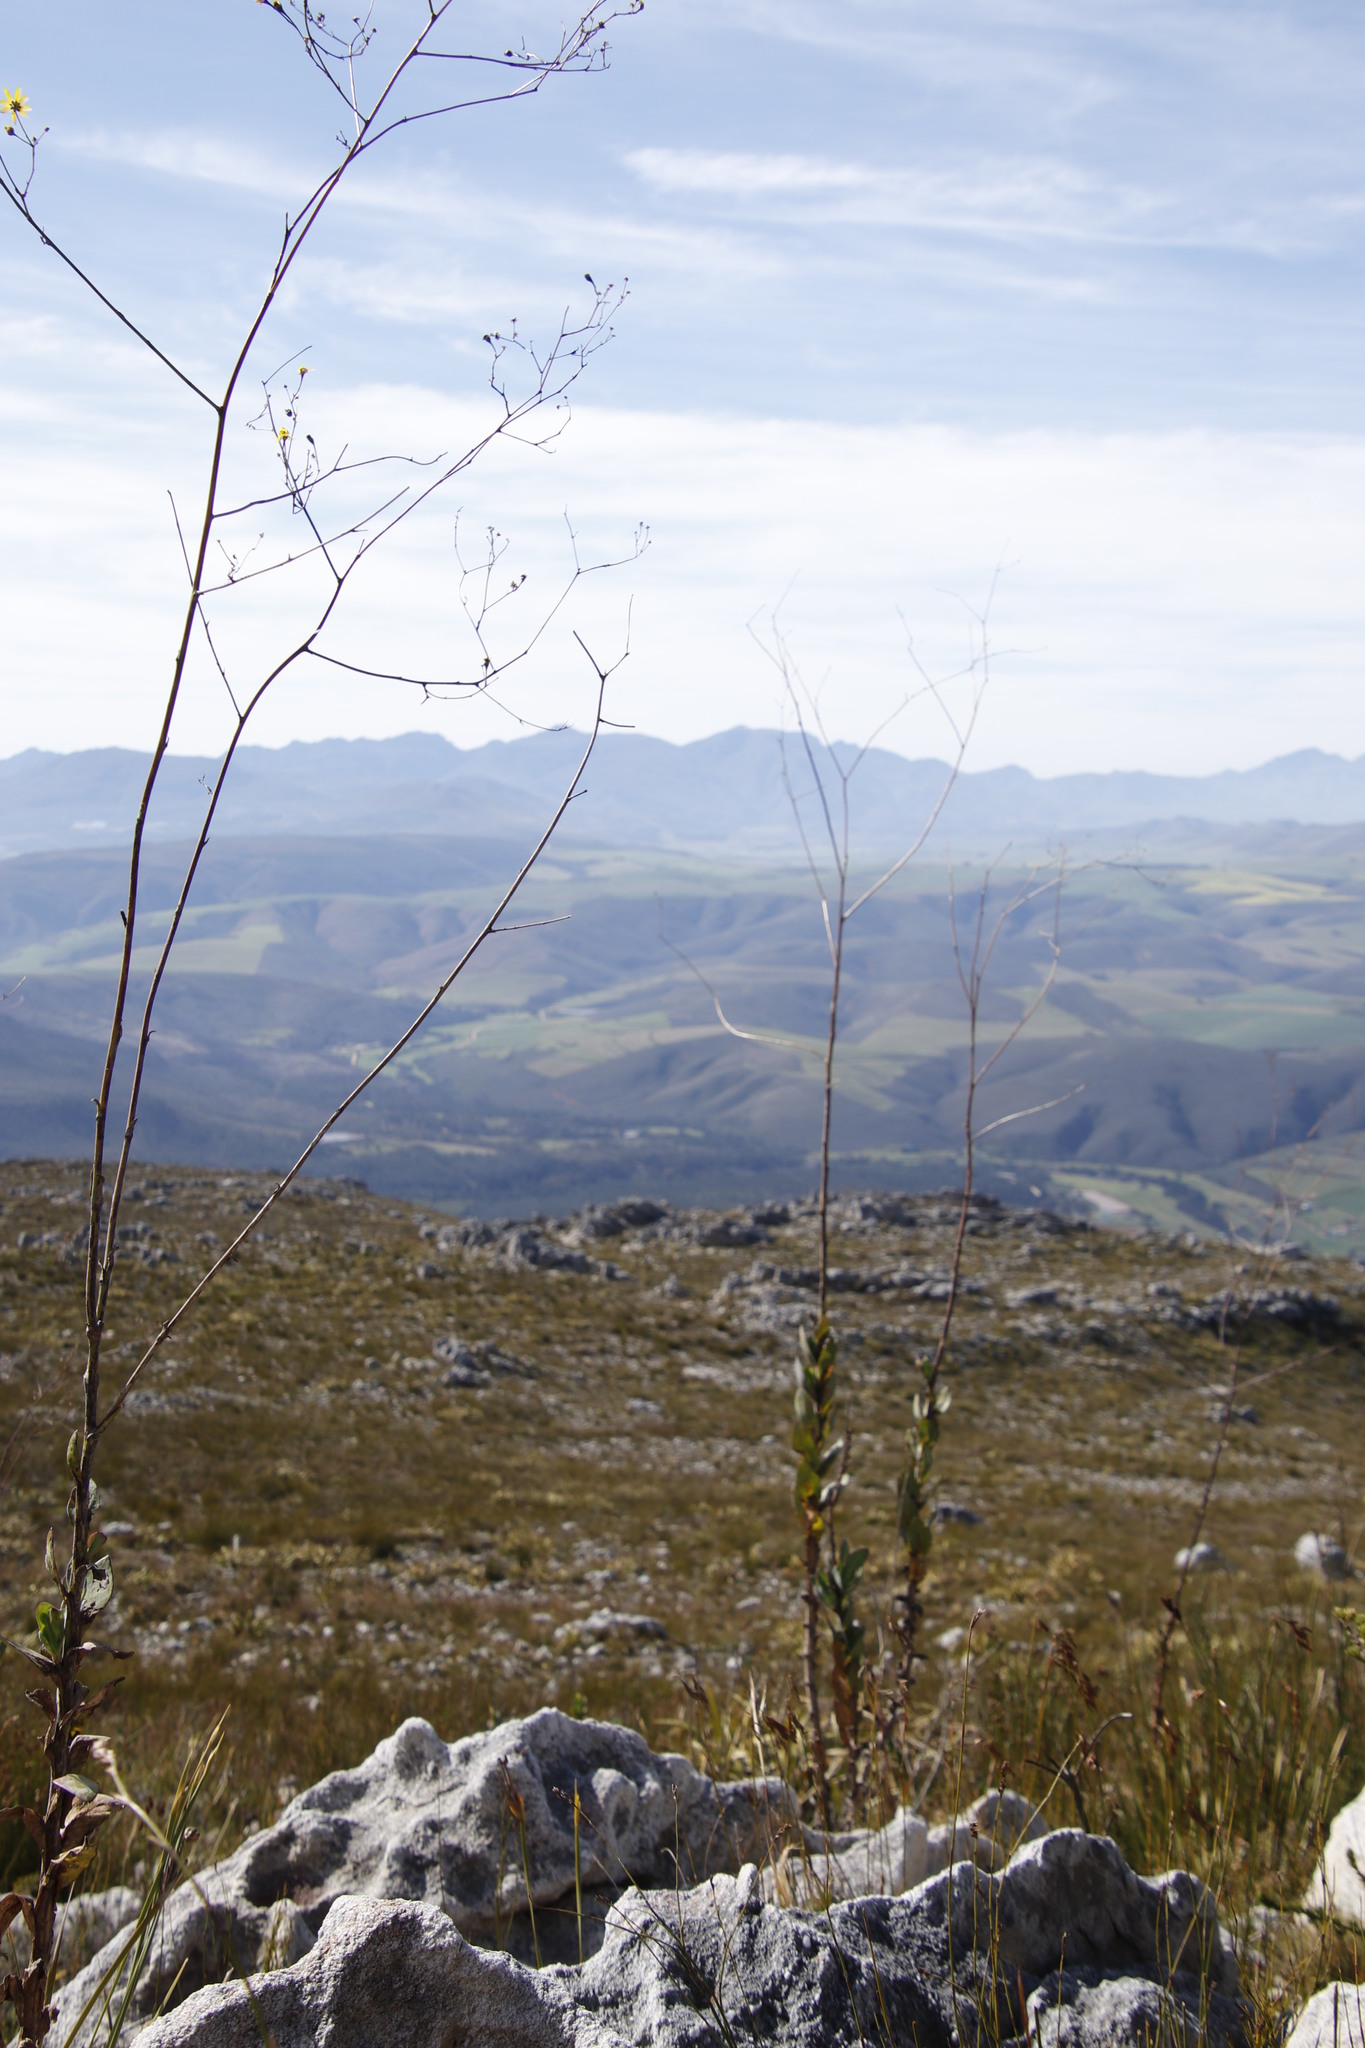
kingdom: Plantae
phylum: Tracheophyta
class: Magnoliopsida
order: Asterales
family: Asteraceae
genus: Othonna
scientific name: Othonna quinquedentata
